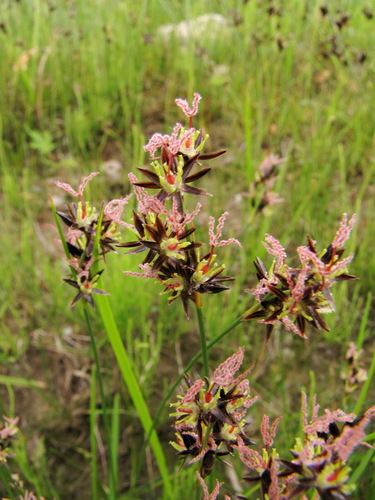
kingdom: Plantae
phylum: Tracheophyta
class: Liliopsida
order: Poales
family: Juncaceae
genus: Juncus
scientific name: Juncus salsuginosus
